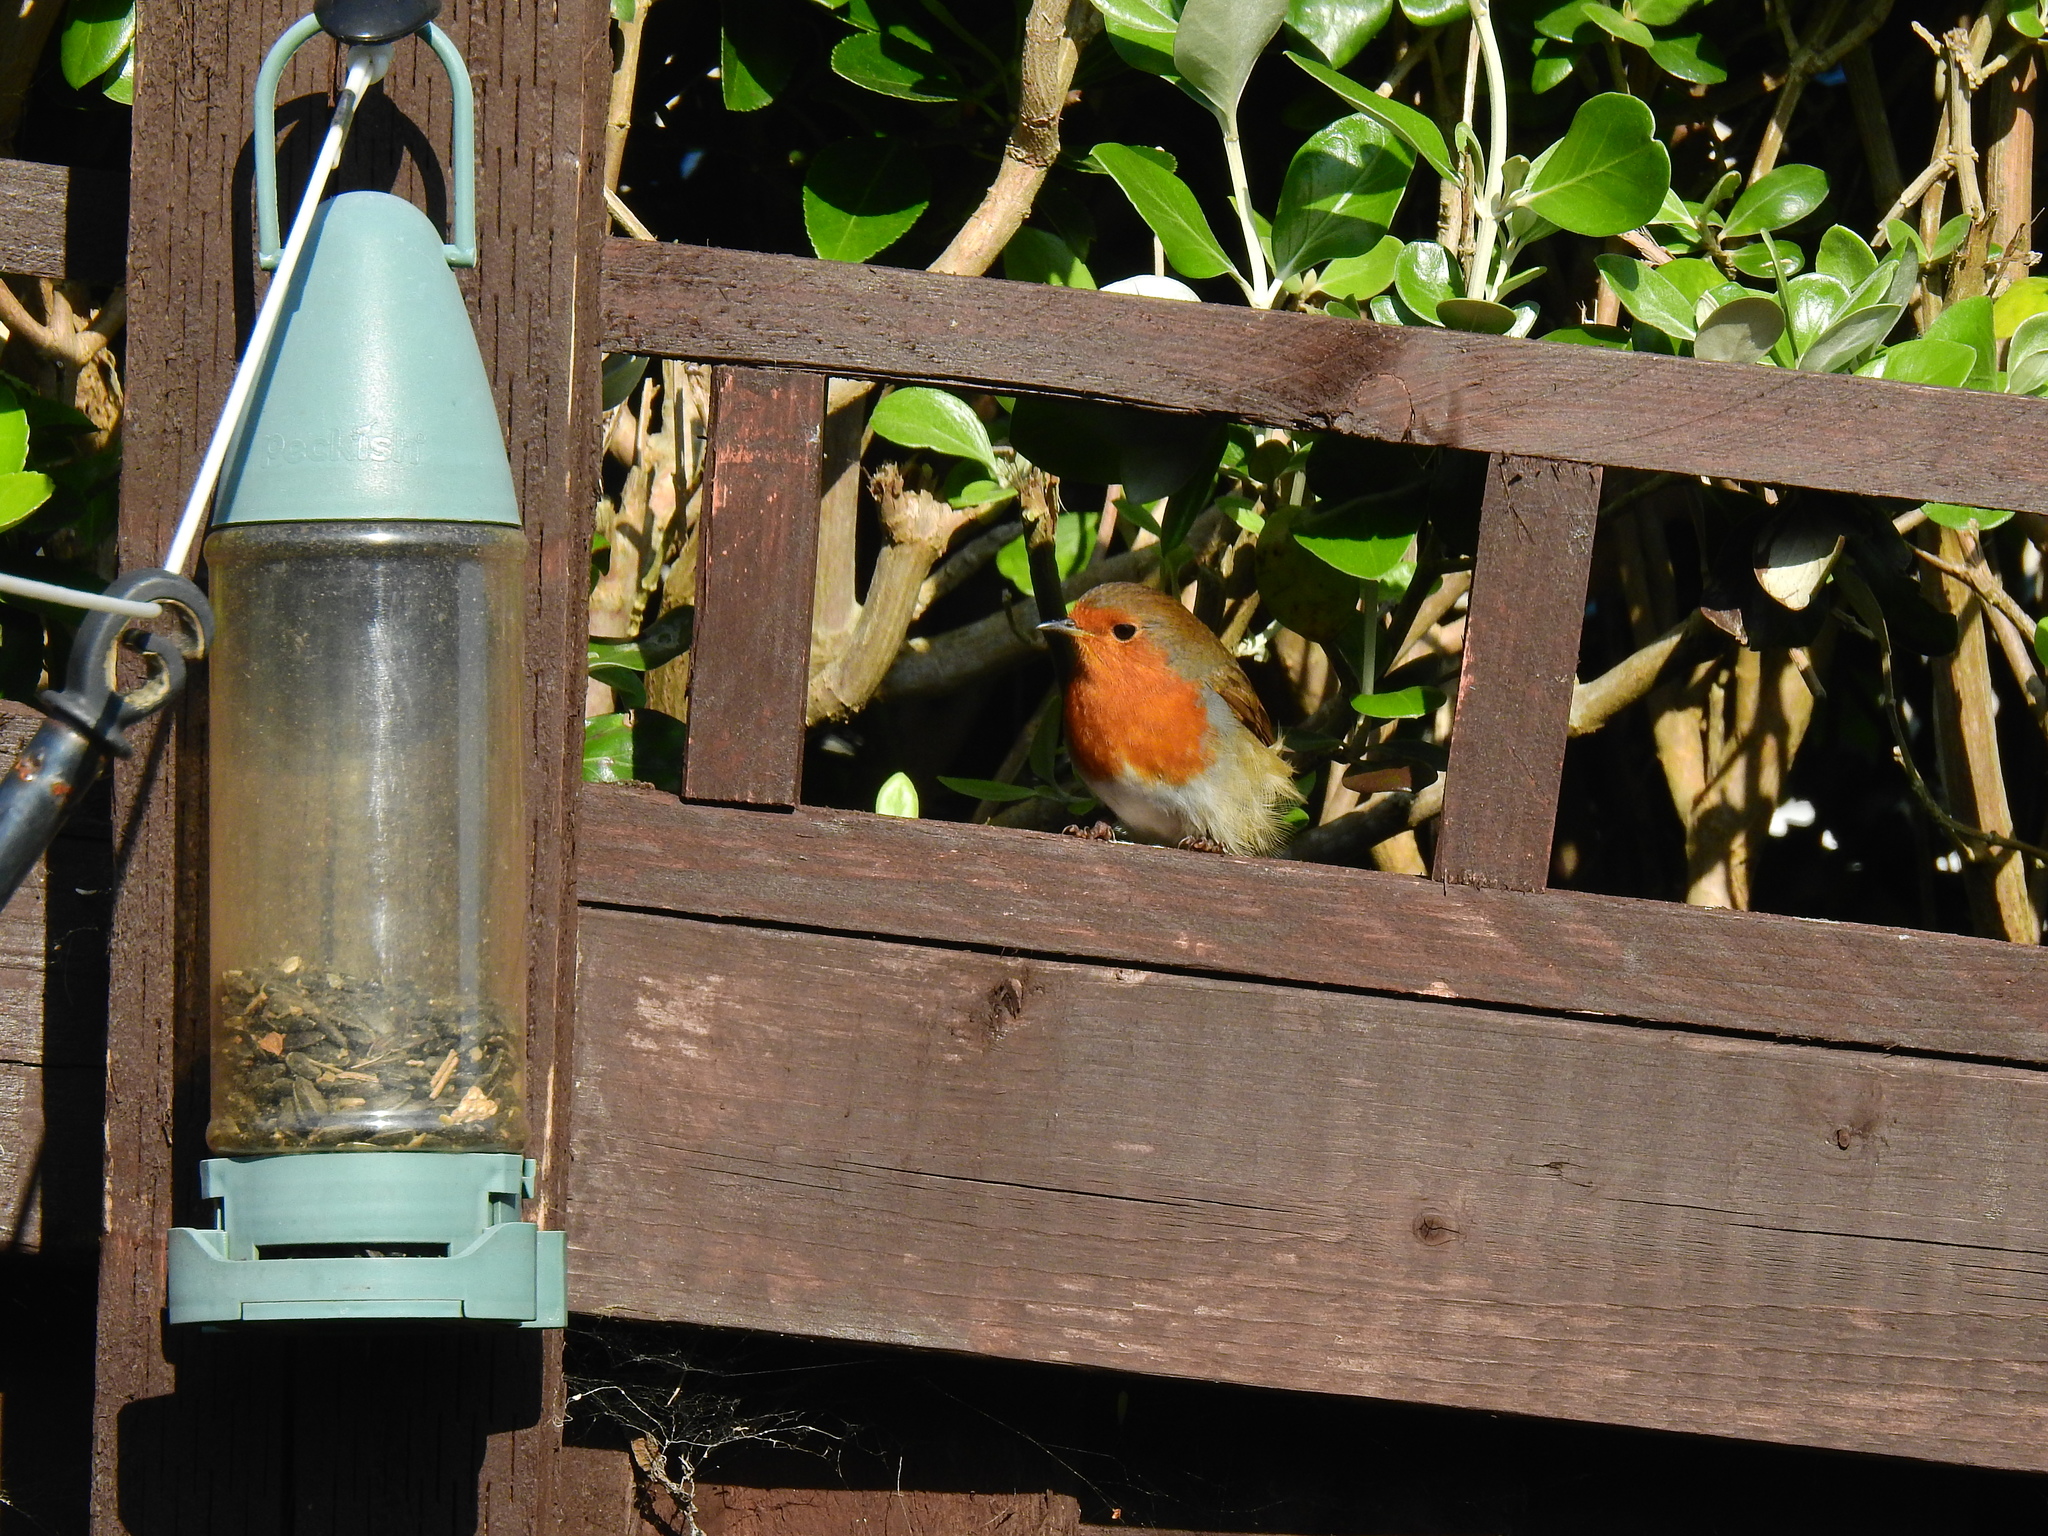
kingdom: Animalia
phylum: Chordata
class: Aves
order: Passeriformes
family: Muscicapidae
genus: Erithacus
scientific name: Erithacus rubecula
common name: European robin
